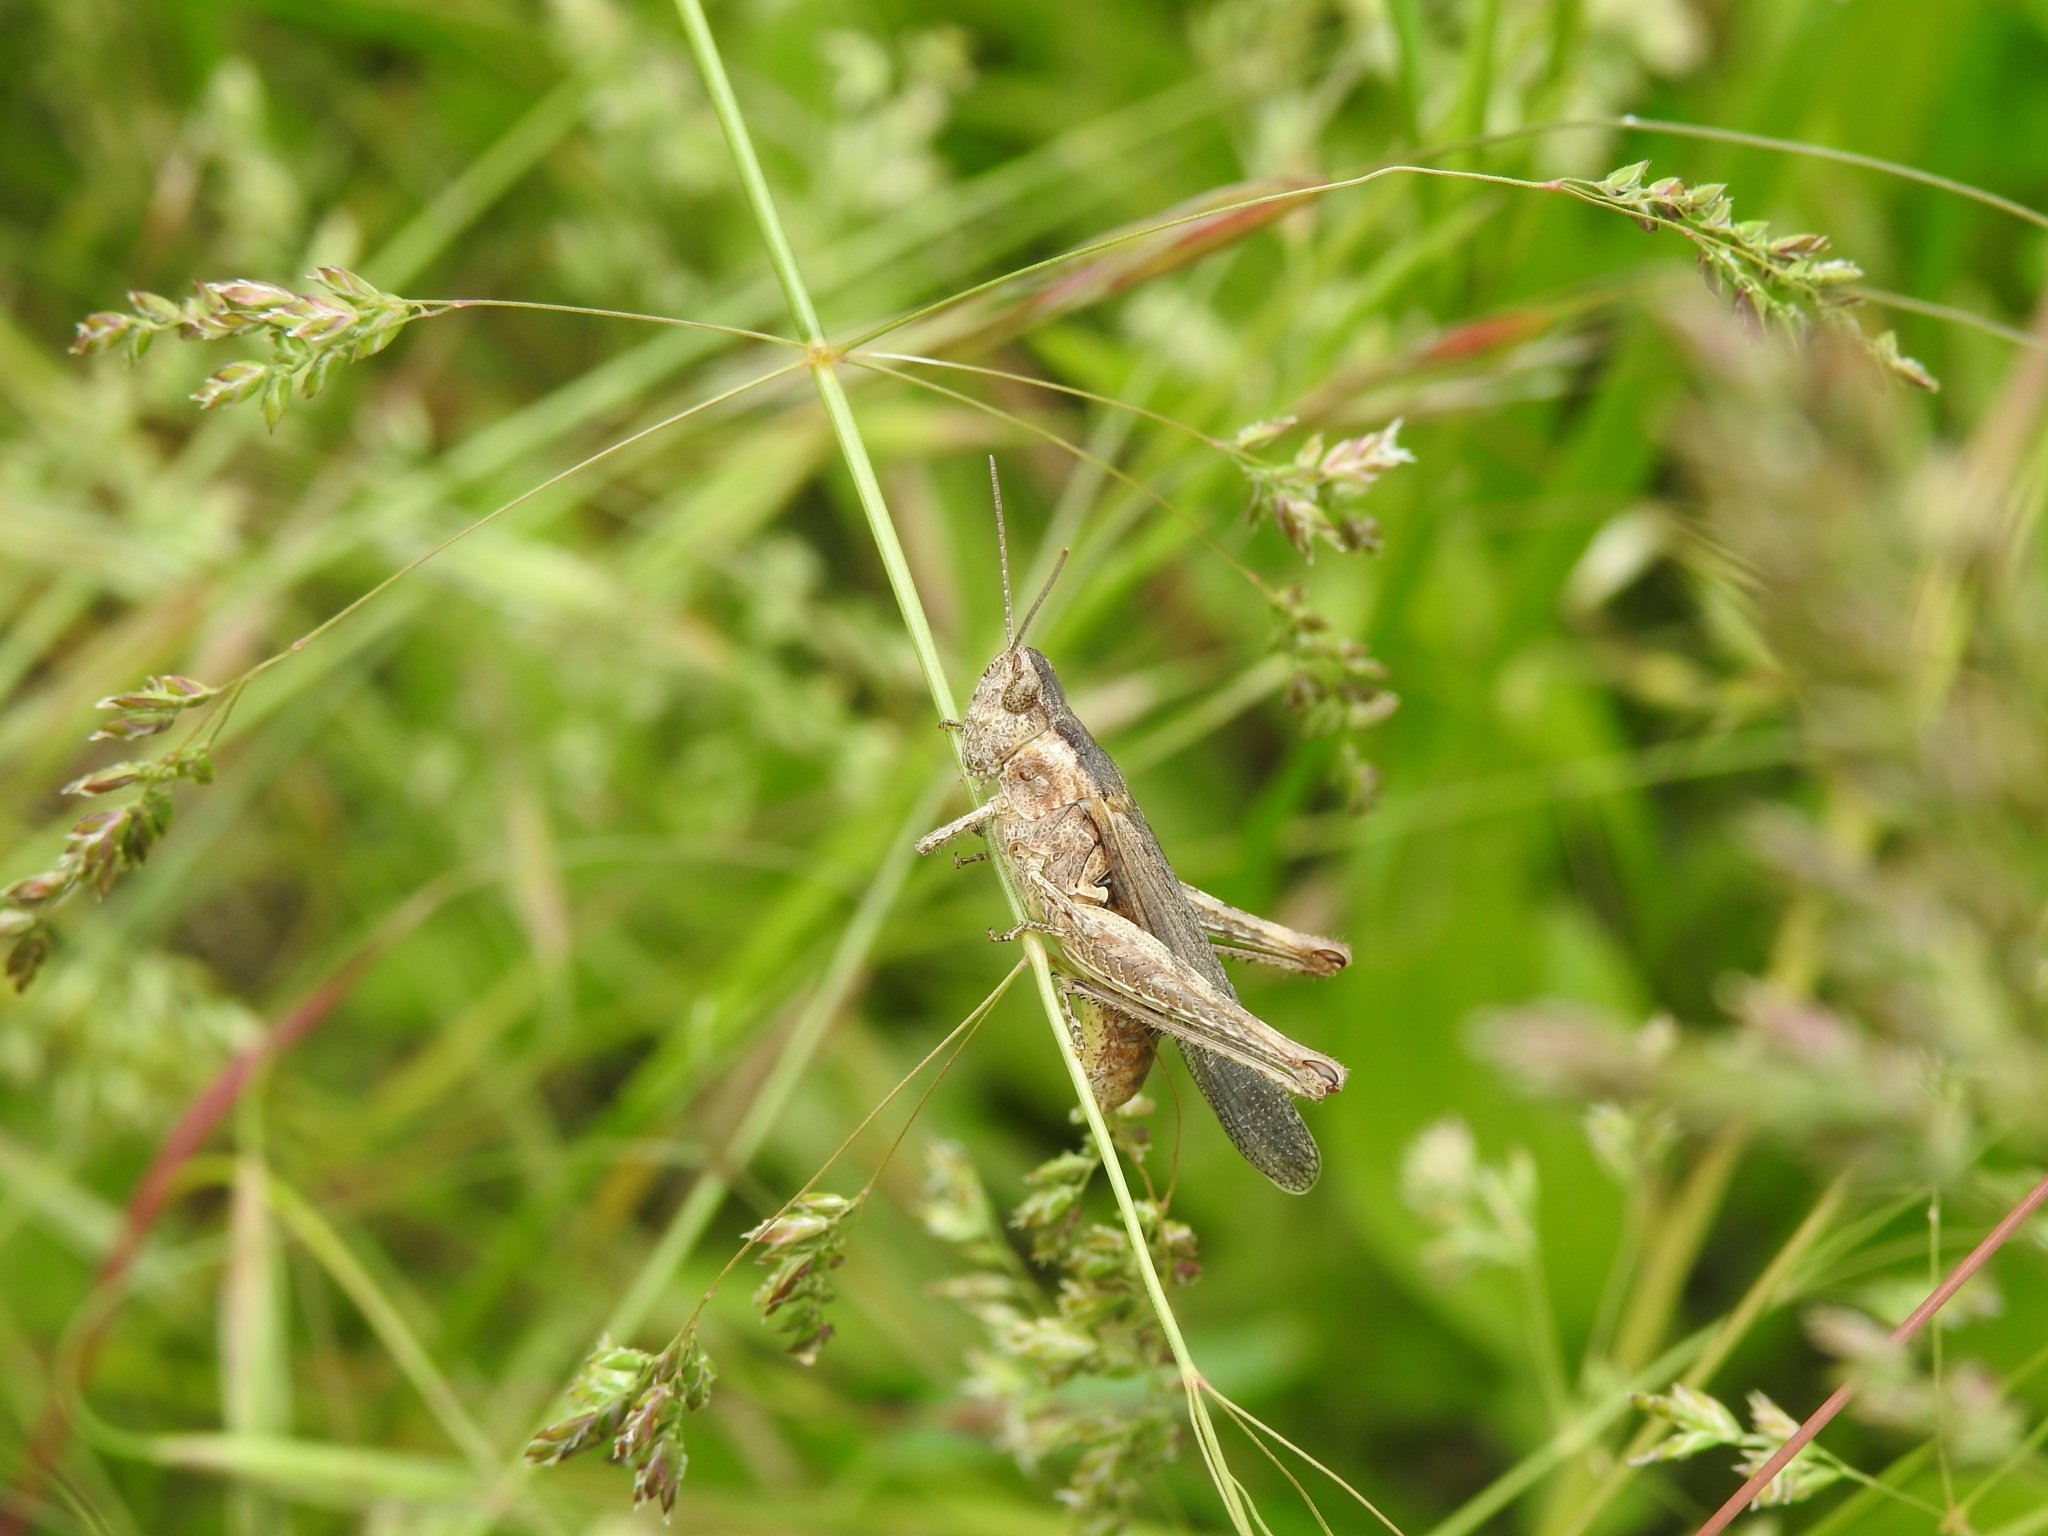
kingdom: Animalia
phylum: Arthropoda
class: Insecta
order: Orthoptera
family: Acrididae
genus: Chorthippus
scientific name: Chorthippus brunneus
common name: Field grasshopper
